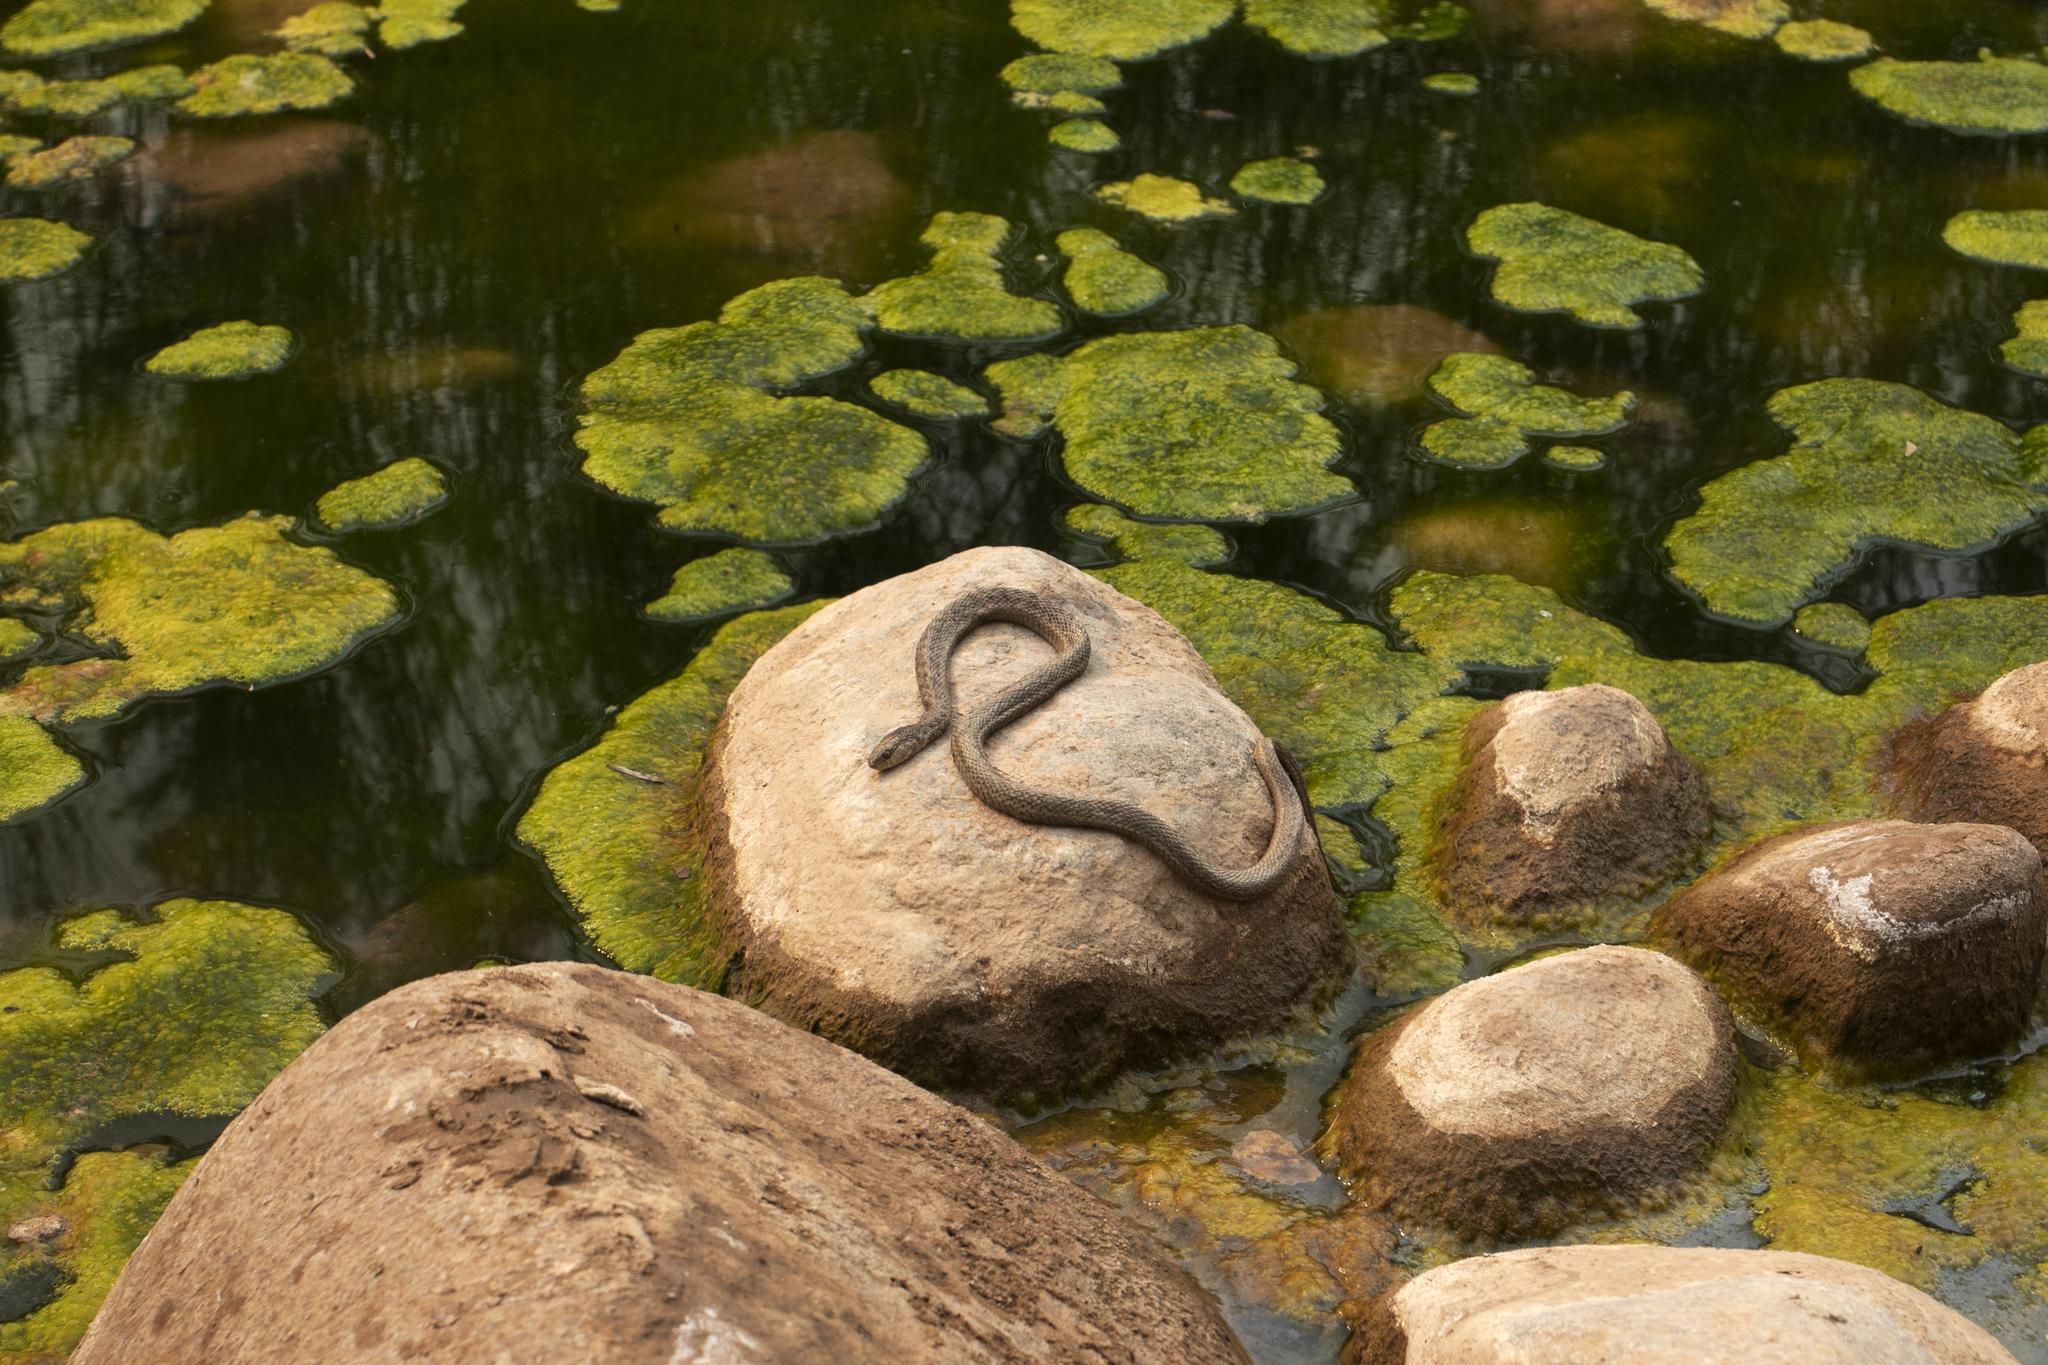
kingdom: Animalia
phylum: Chordata
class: Squamata
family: Colubridae
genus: Thamnophis
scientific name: Thamnophis elegans
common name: Western terrestrial garter snake
